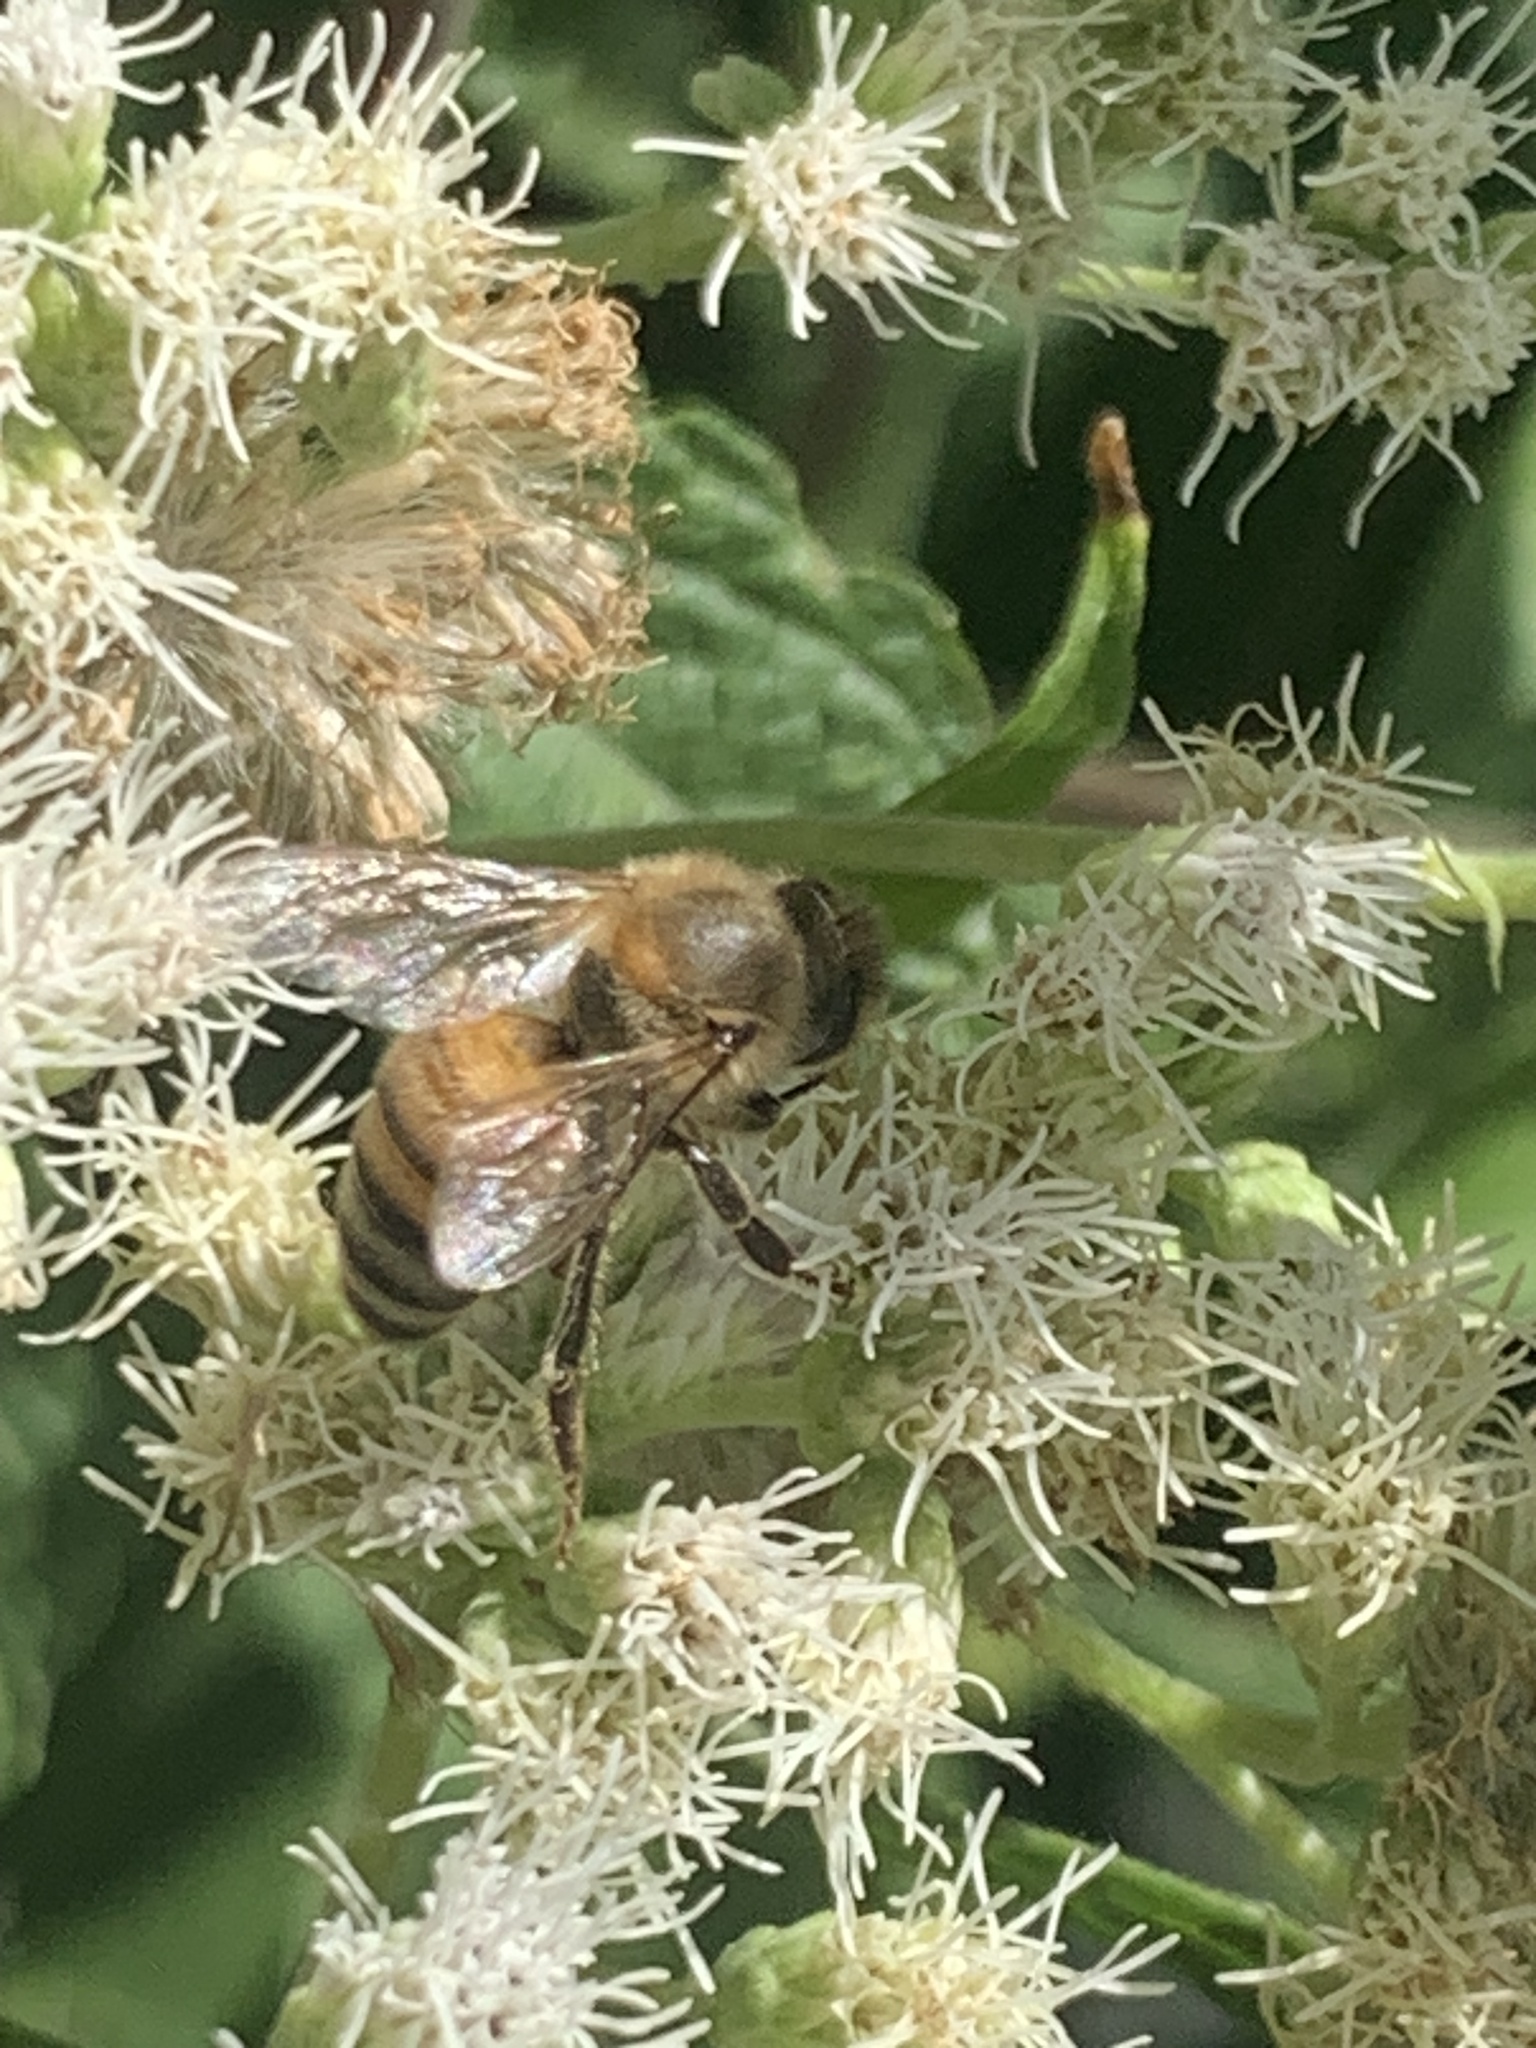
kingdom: Animalia
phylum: Arthropoda
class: Insecta
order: Hymenoptera
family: Apidae
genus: Apis
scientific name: Apis mellifera
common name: Honey bee
